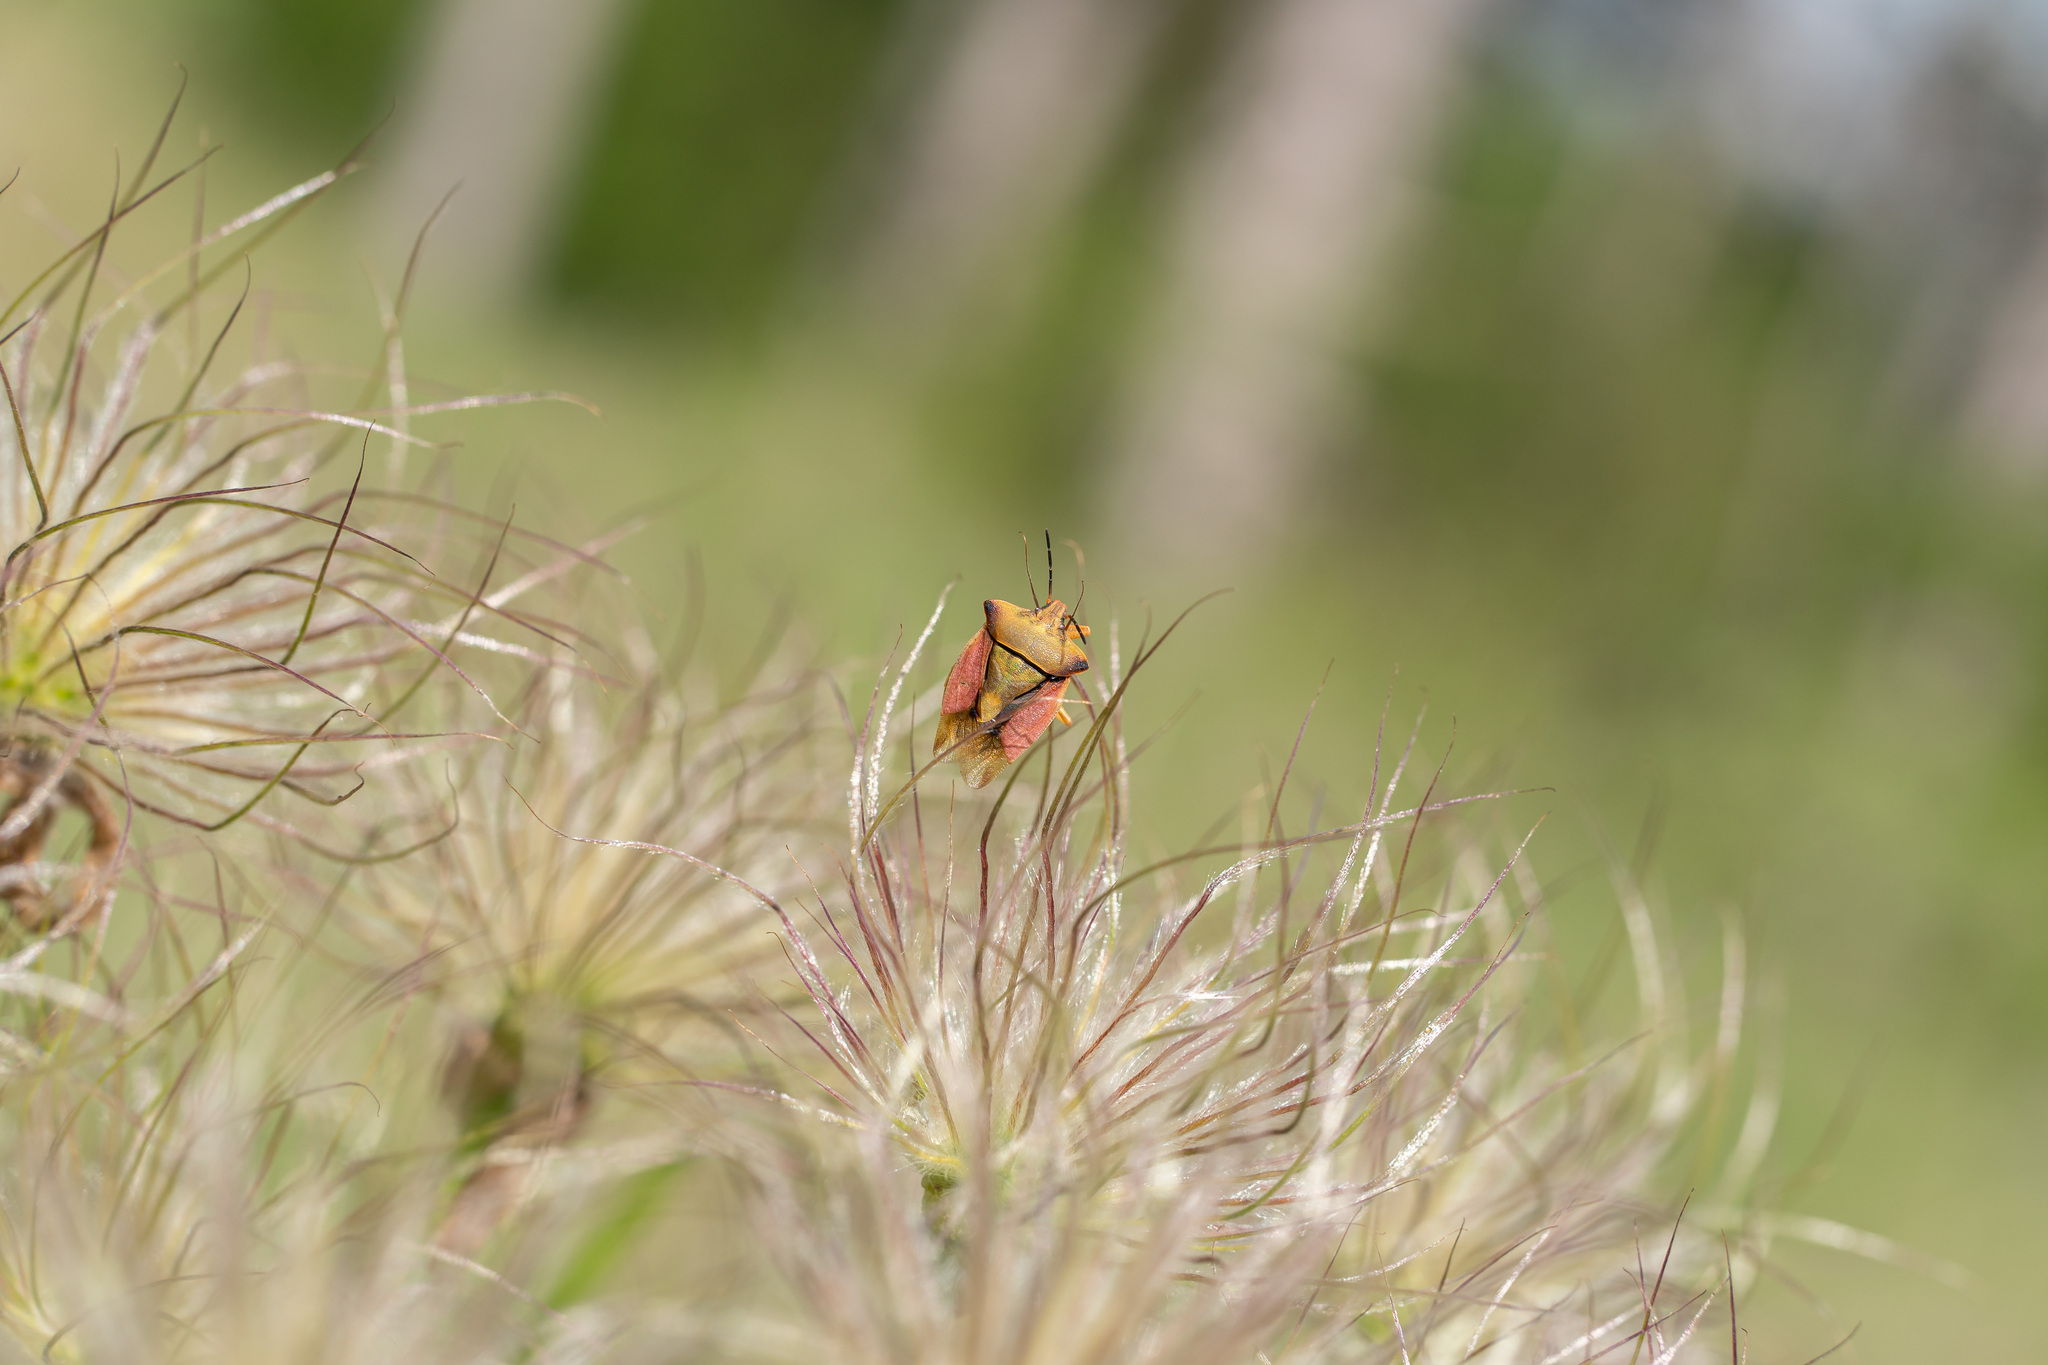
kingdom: Animalia
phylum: Arthropoda
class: Insecta
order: Hemiptera
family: Pentatomidae
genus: Carpocoris
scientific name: Carpocoris fuscispinus
